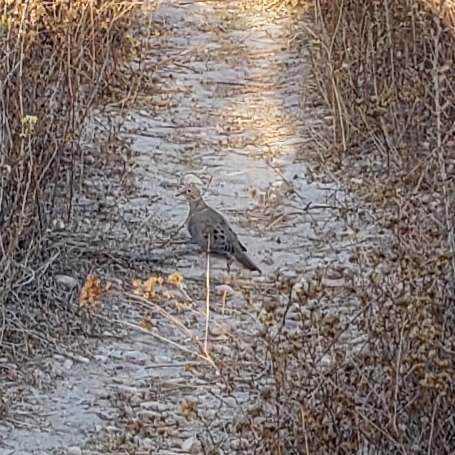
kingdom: Animalia
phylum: Chordata
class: Aves
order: Columbiformes
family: Columbidae
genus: Zenaida
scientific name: Zenaida macroura
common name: Mourning dove
